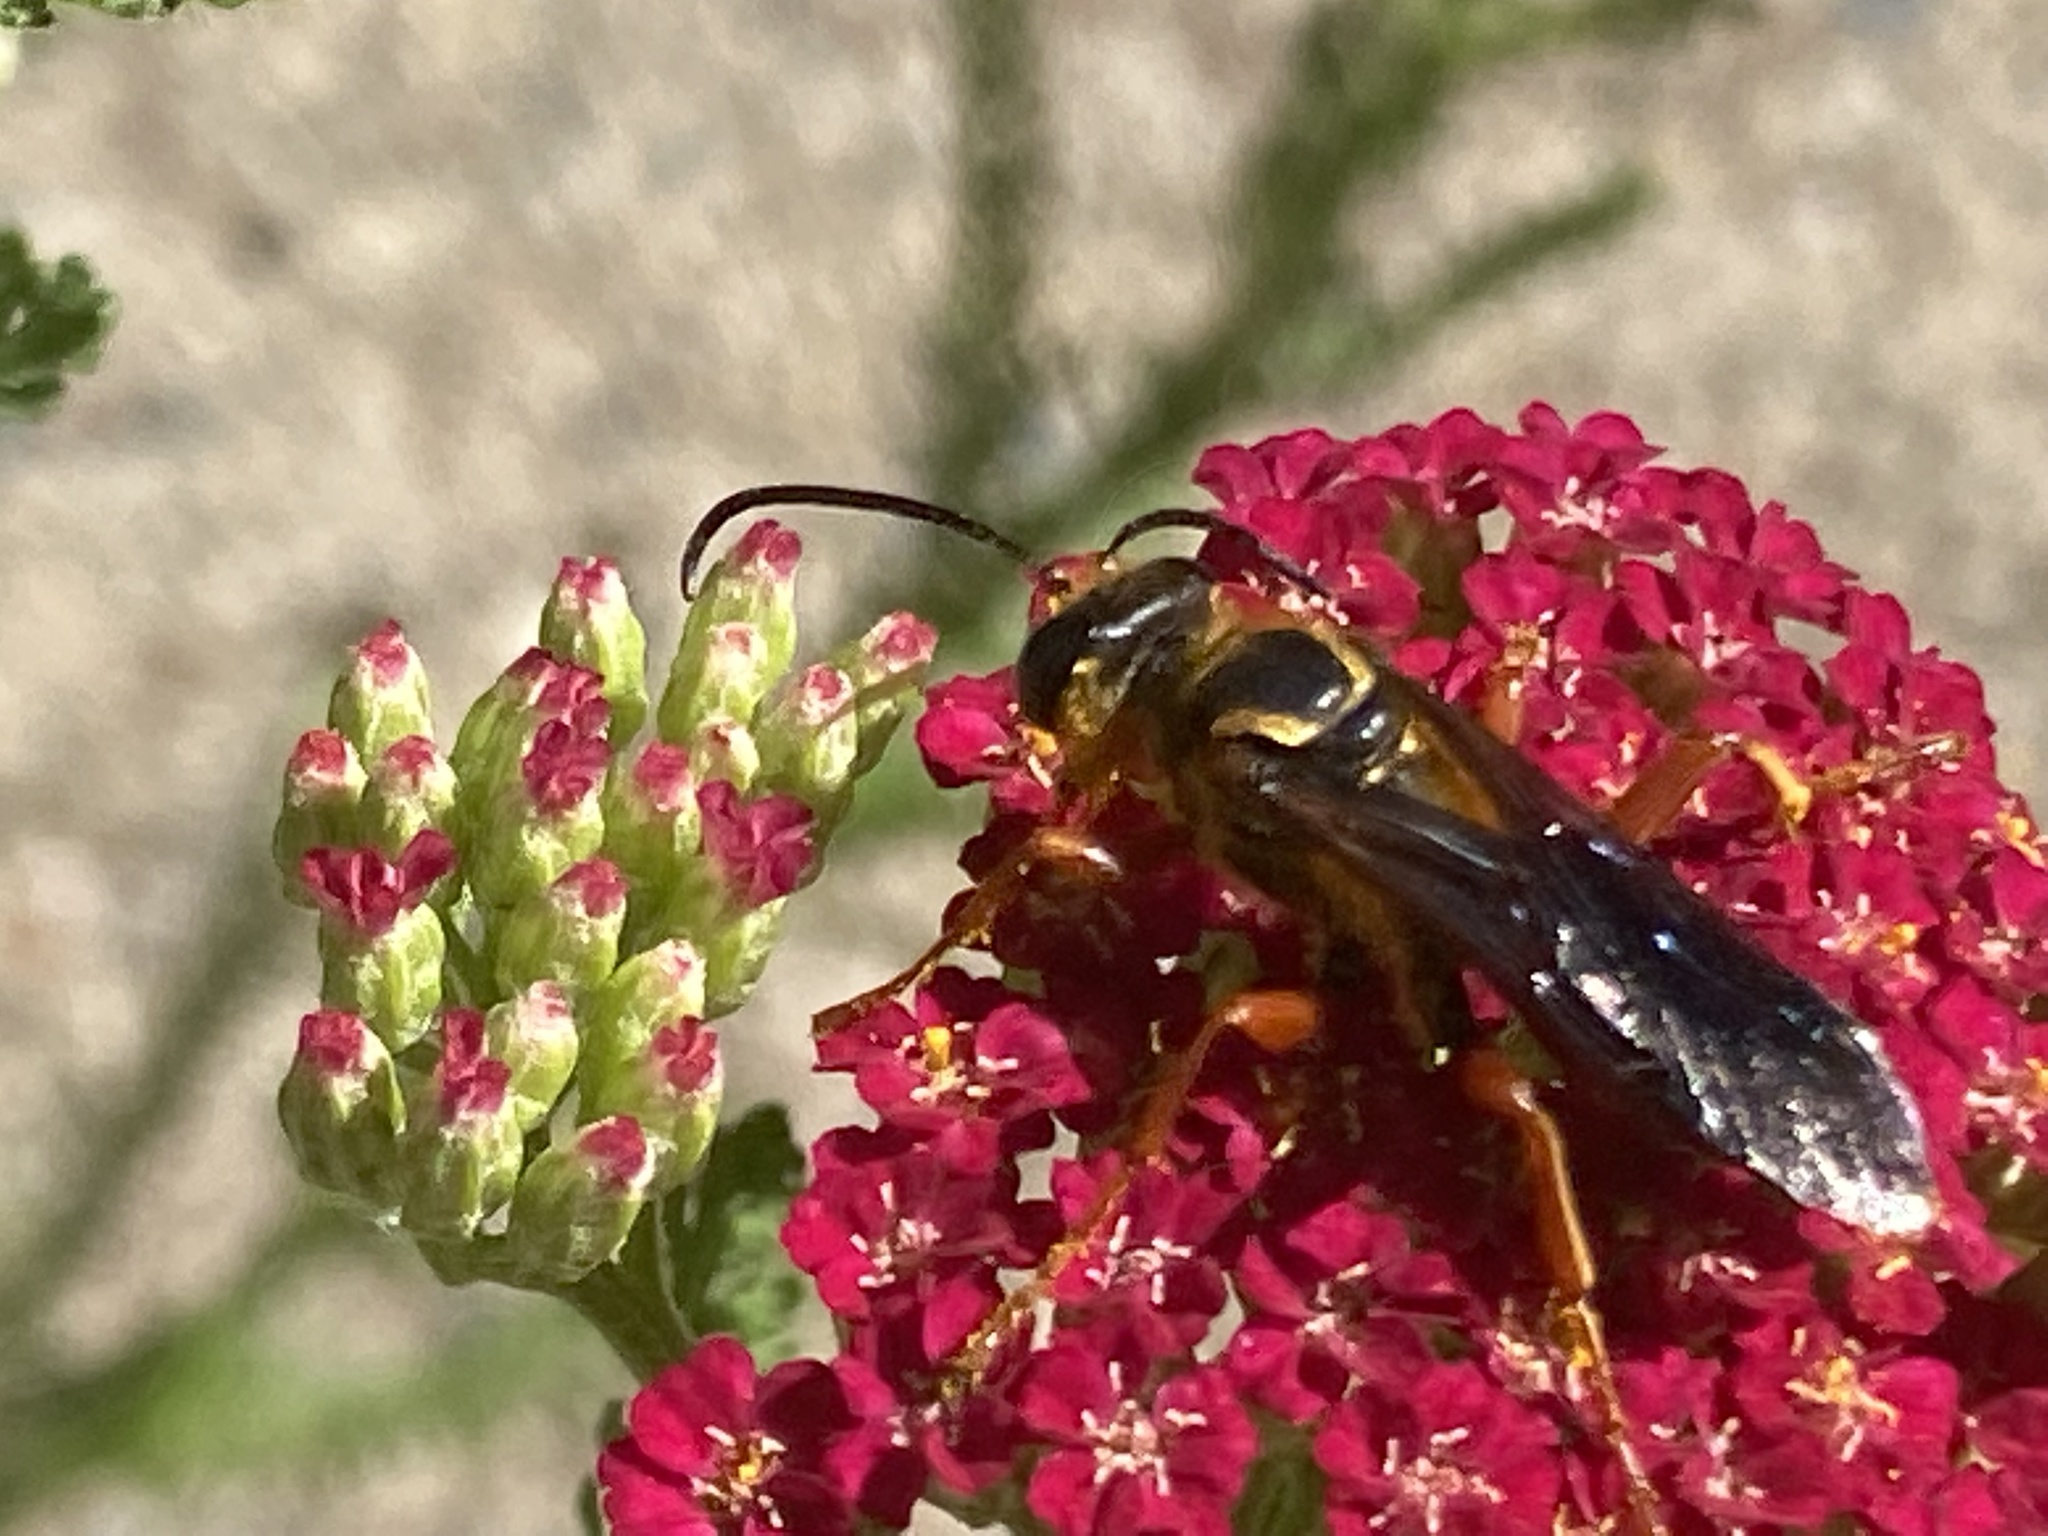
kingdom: Animalia
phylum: Arthropoda
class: Insecta
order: Hymenoptera
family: Sphecidae
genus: Sphex
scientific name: Sphex ichneumoneus
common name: Great golden digger wasp
